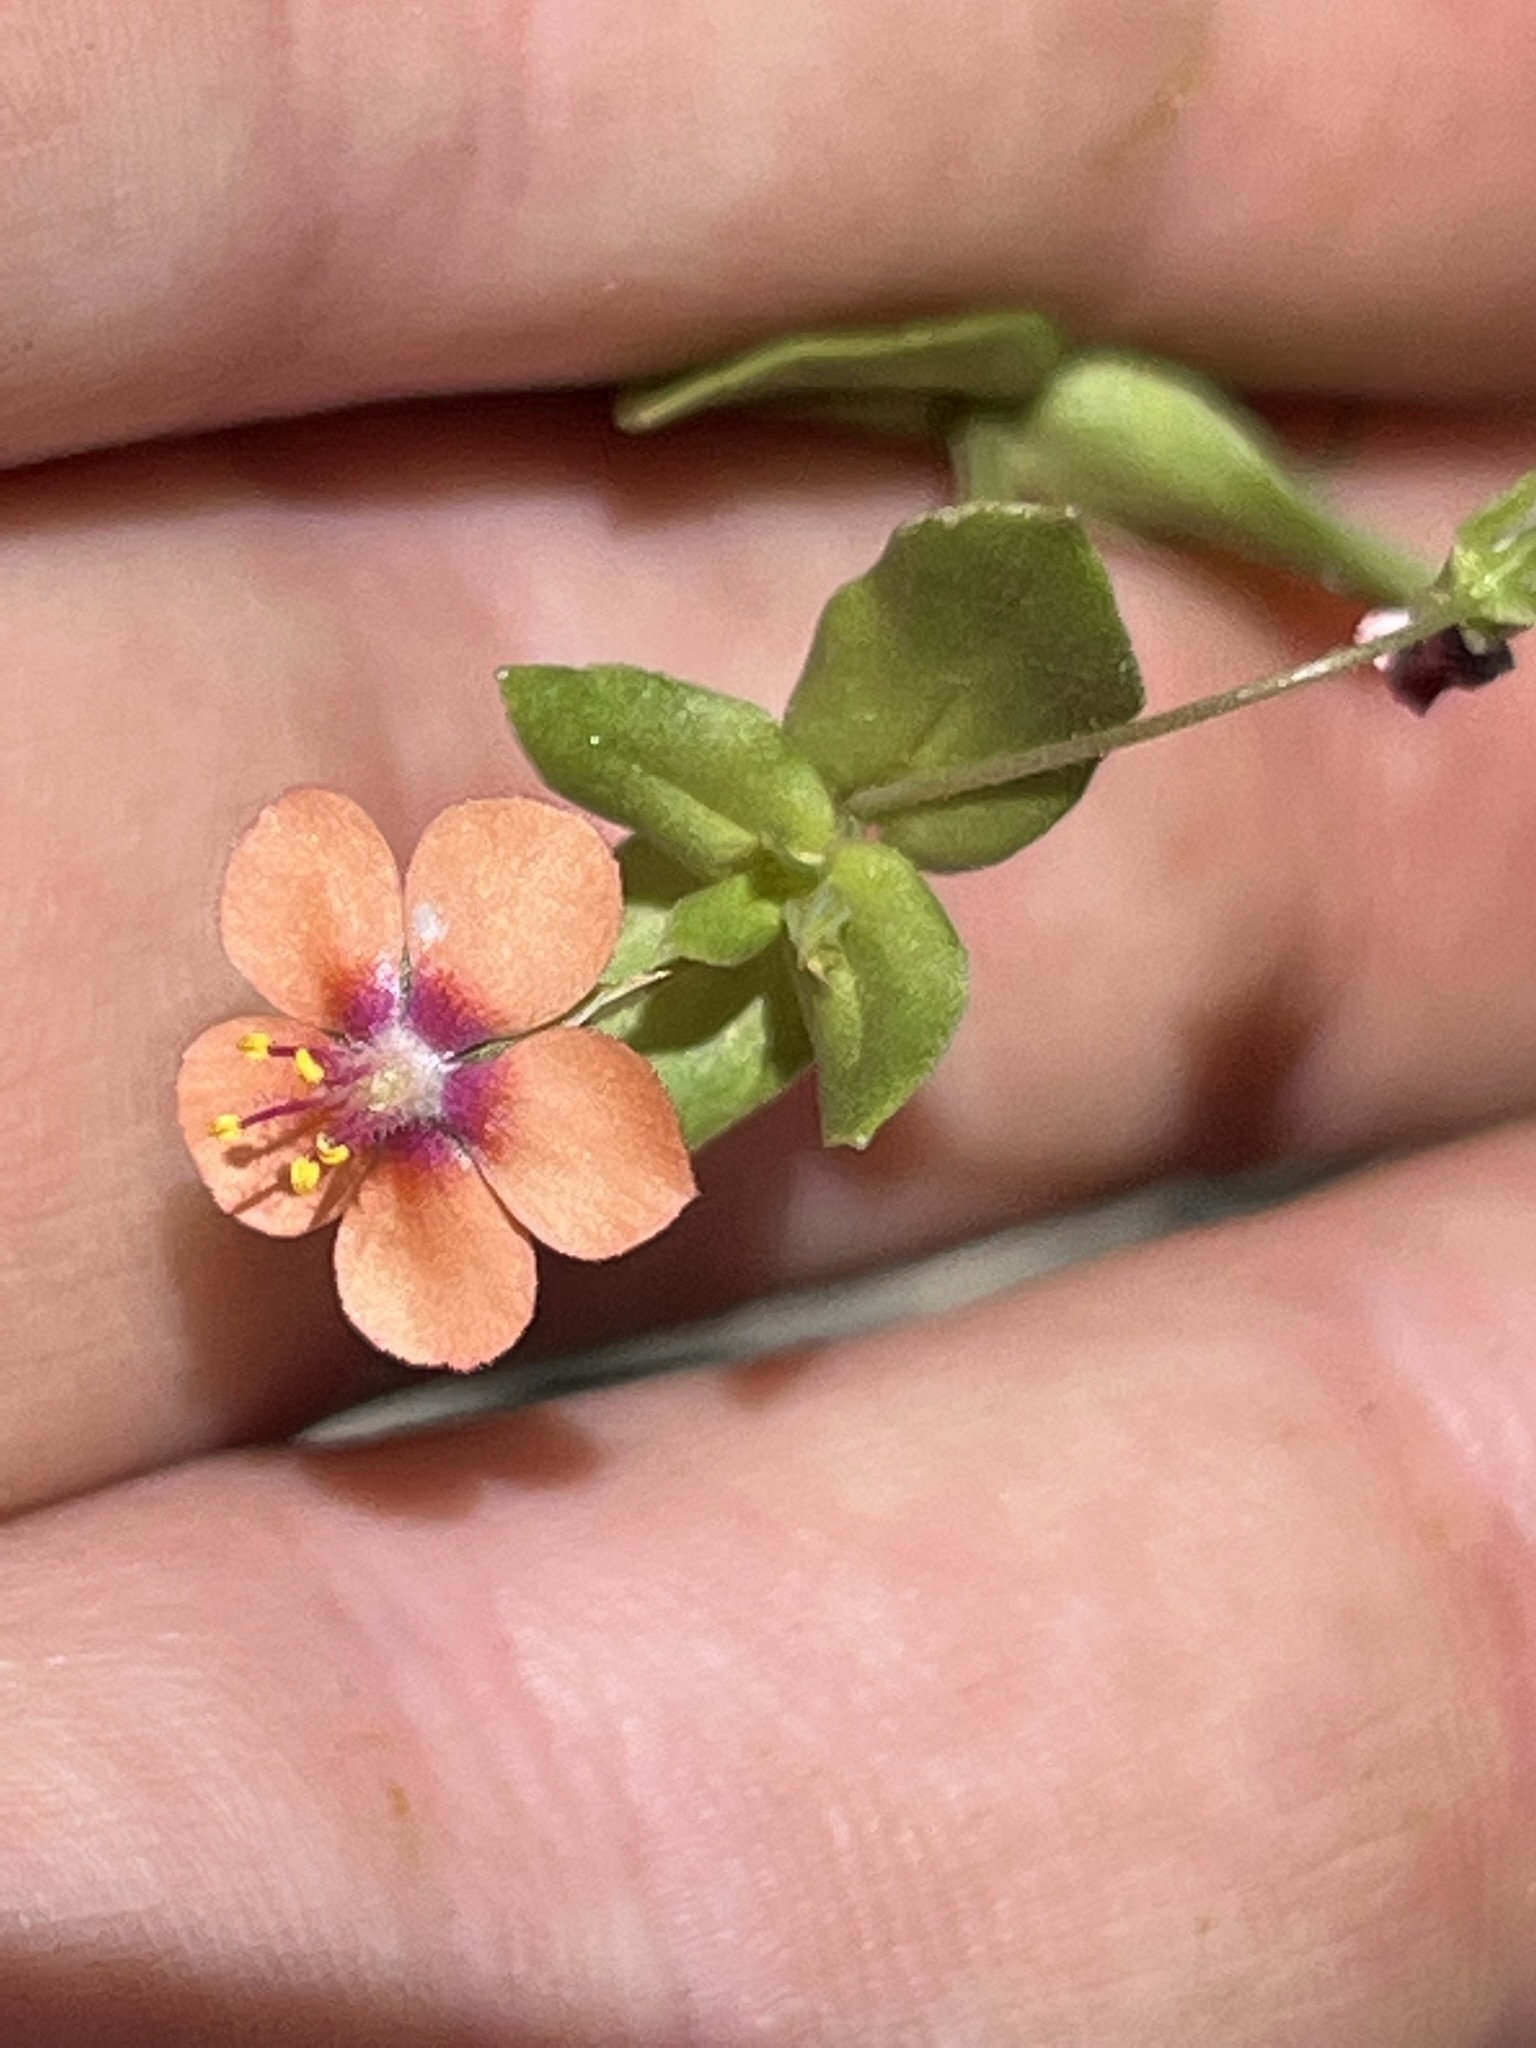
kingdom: Plantae
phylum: Tracheophyta
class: Magnoliopsida
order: Ericales
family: Primulaceae
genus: Lysimachia
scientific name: Lysimachia arvensis
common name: Scarlet pimpernel
